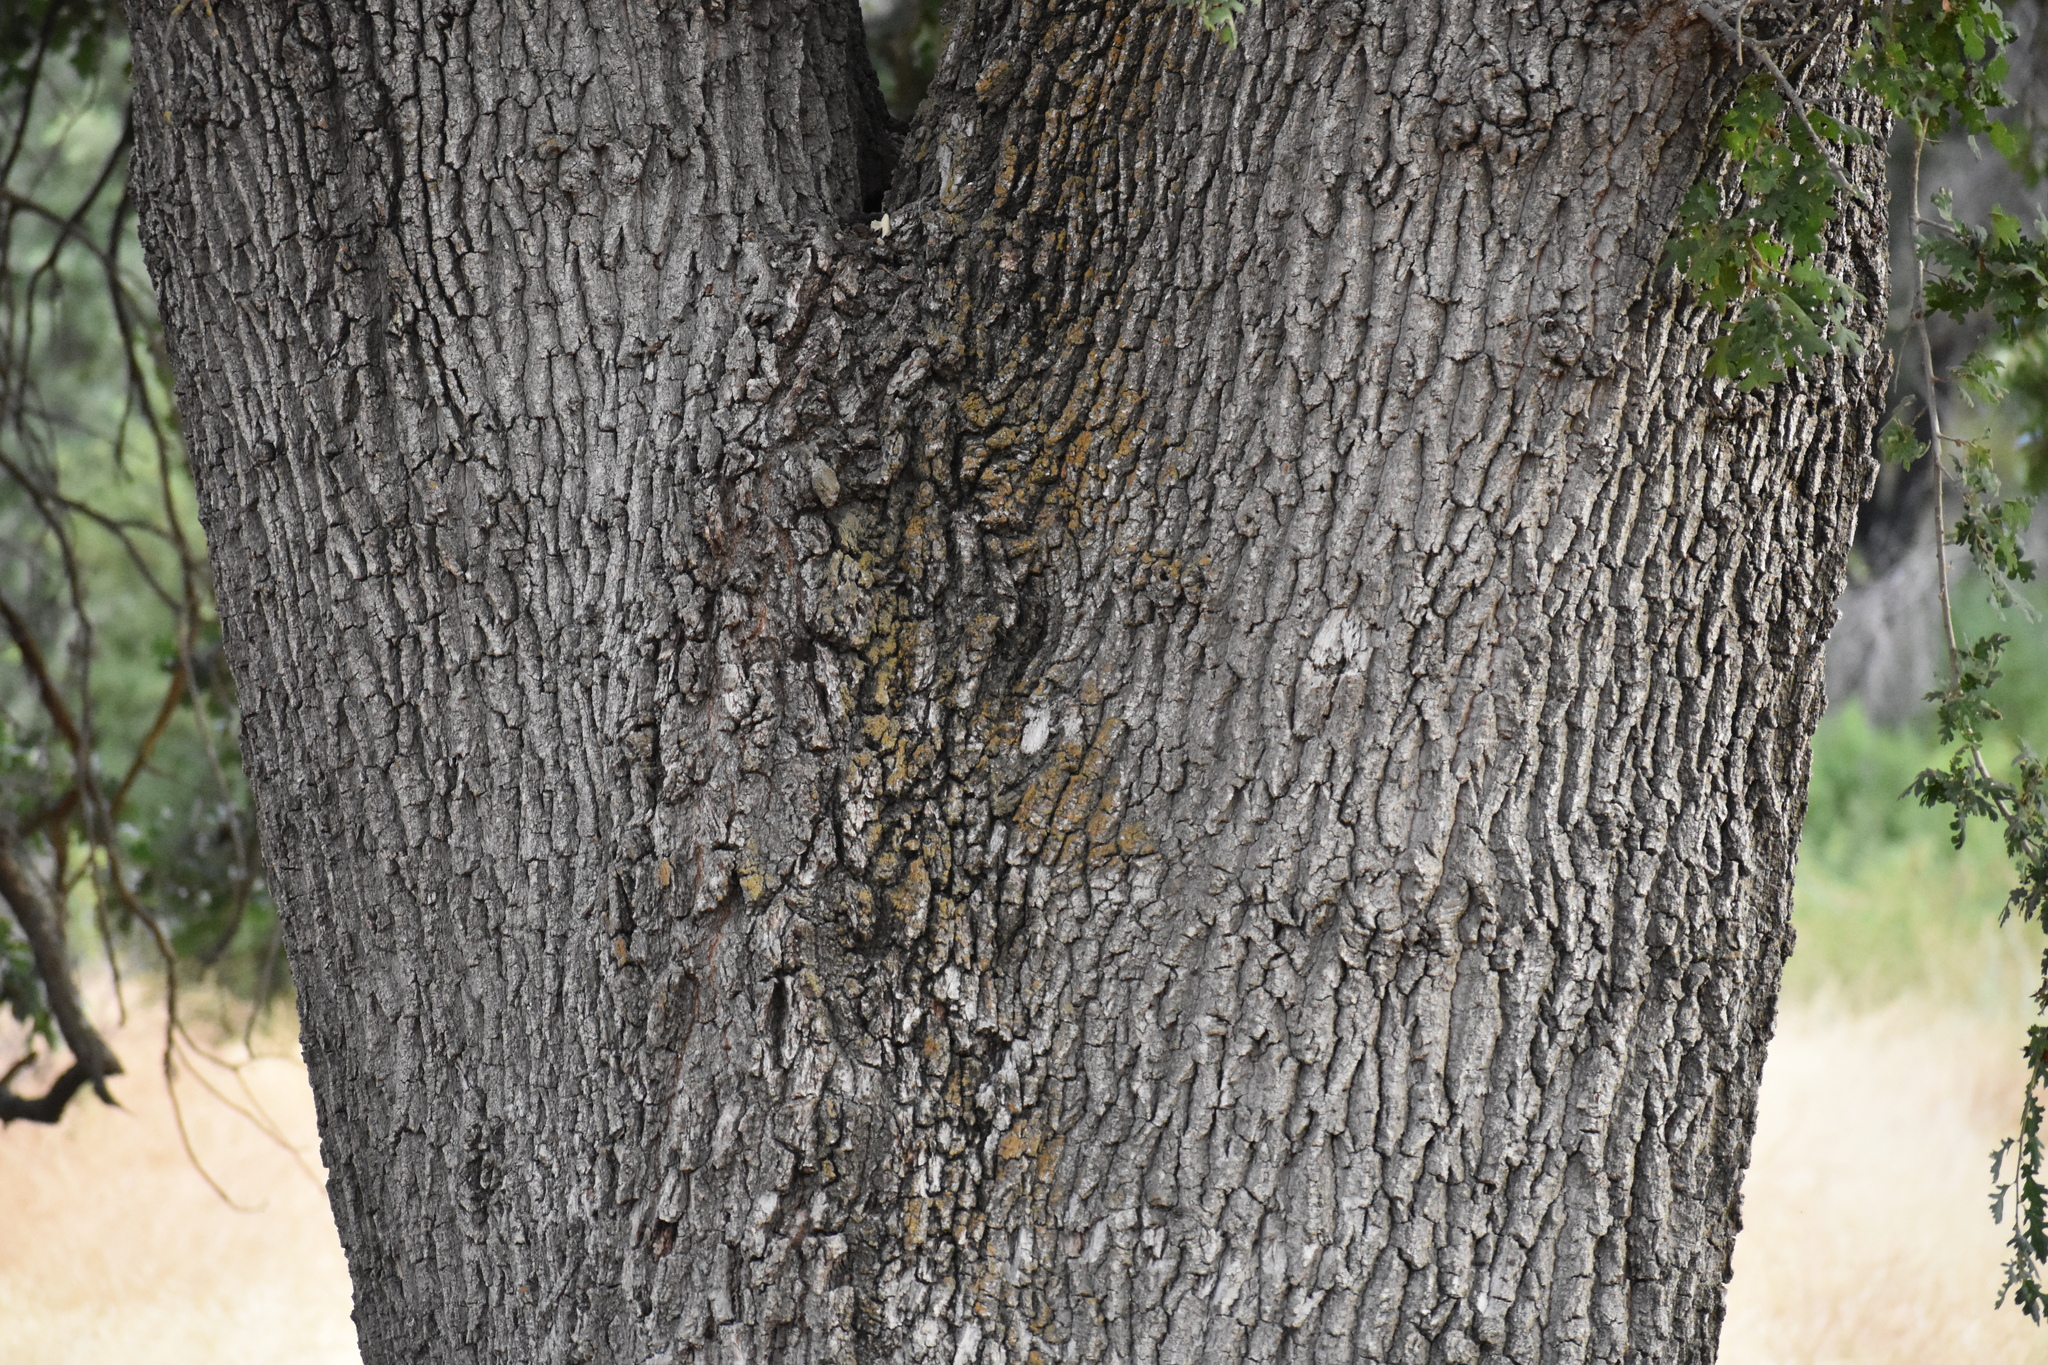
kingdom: Plantae
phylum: Tracheophyta
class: Magnoliopsida
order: Fagales
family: Fagaceae
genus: Quercus
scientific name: Quercus lobata
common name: Valley oak
